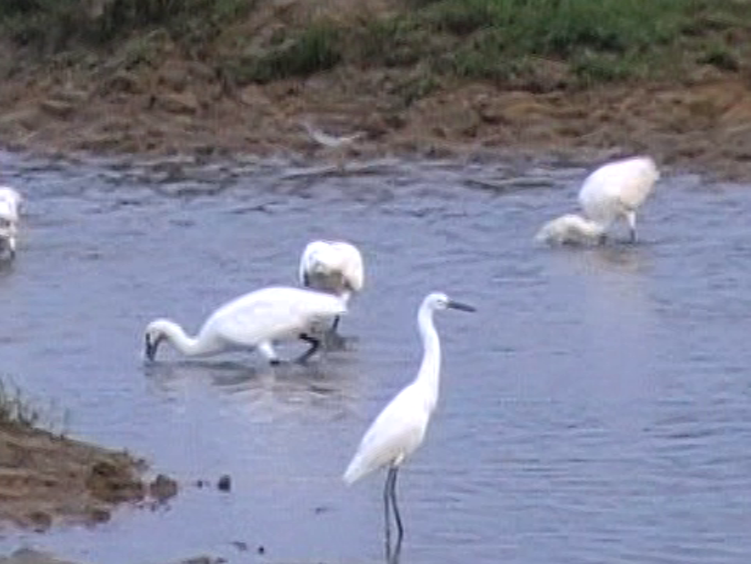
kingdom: Animalia
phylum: Chordata
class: Aves
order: Pelecaniformes
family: Ardeidae
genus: Egretta
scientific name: Egretta garzetta
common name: Little egret
